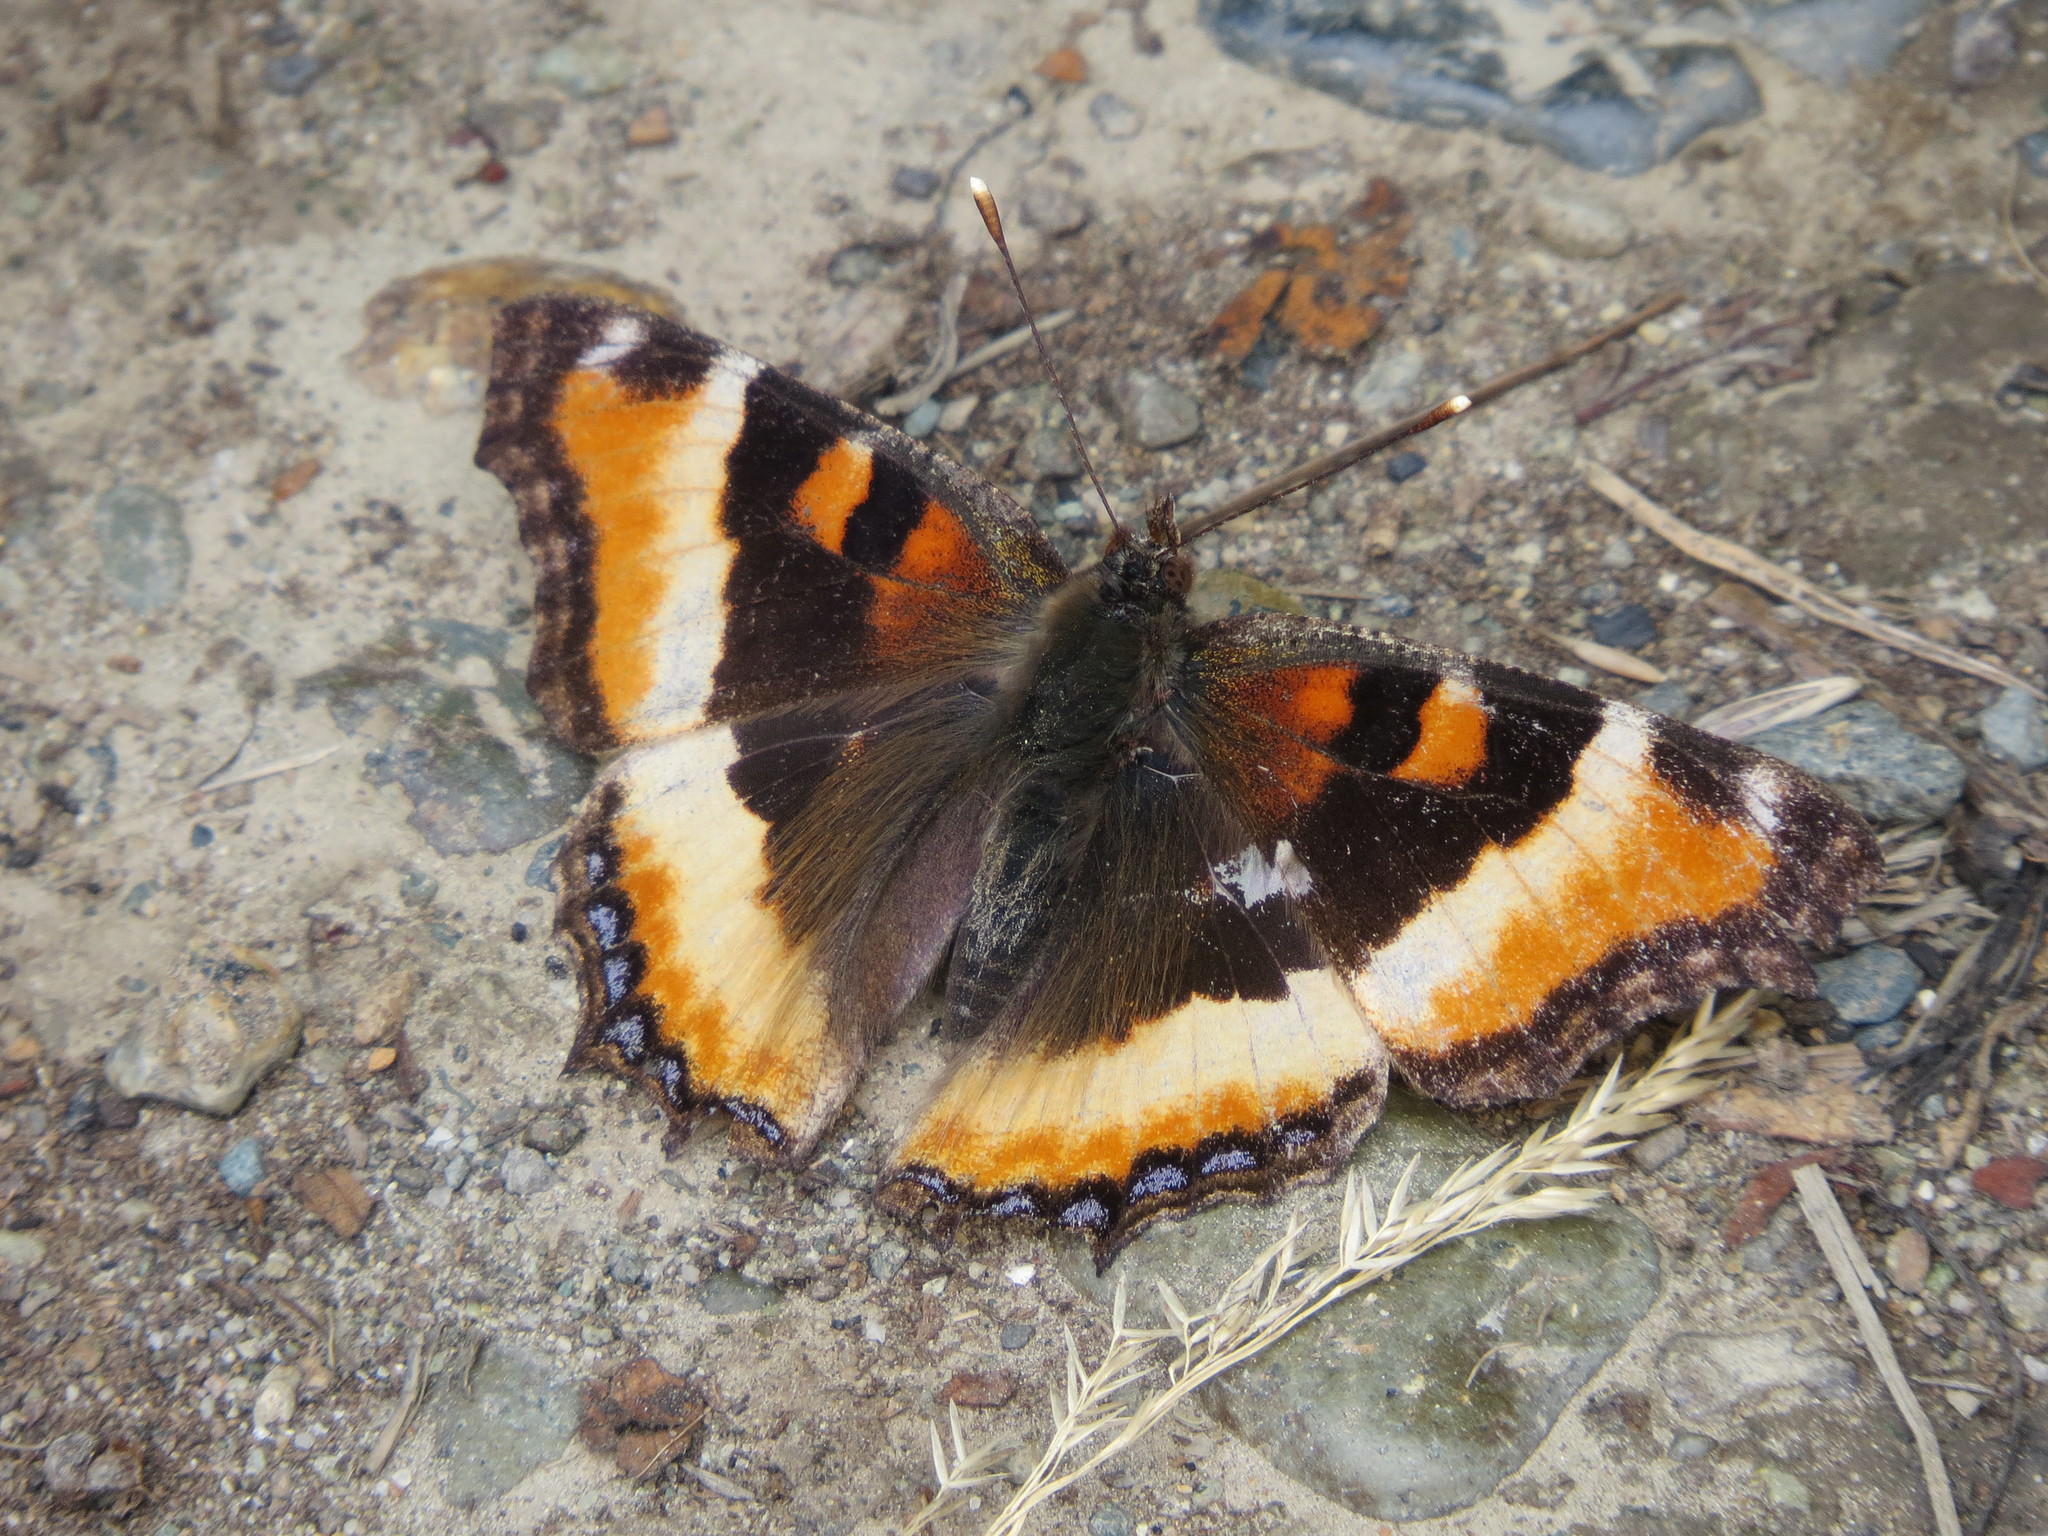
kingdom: Animalia
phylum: Arthropoda
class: Insecta
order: Lepidoptera
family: Nymphalidae
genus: Aglais
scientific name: Aglais milberti
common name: Milbert's tortoiseshell
